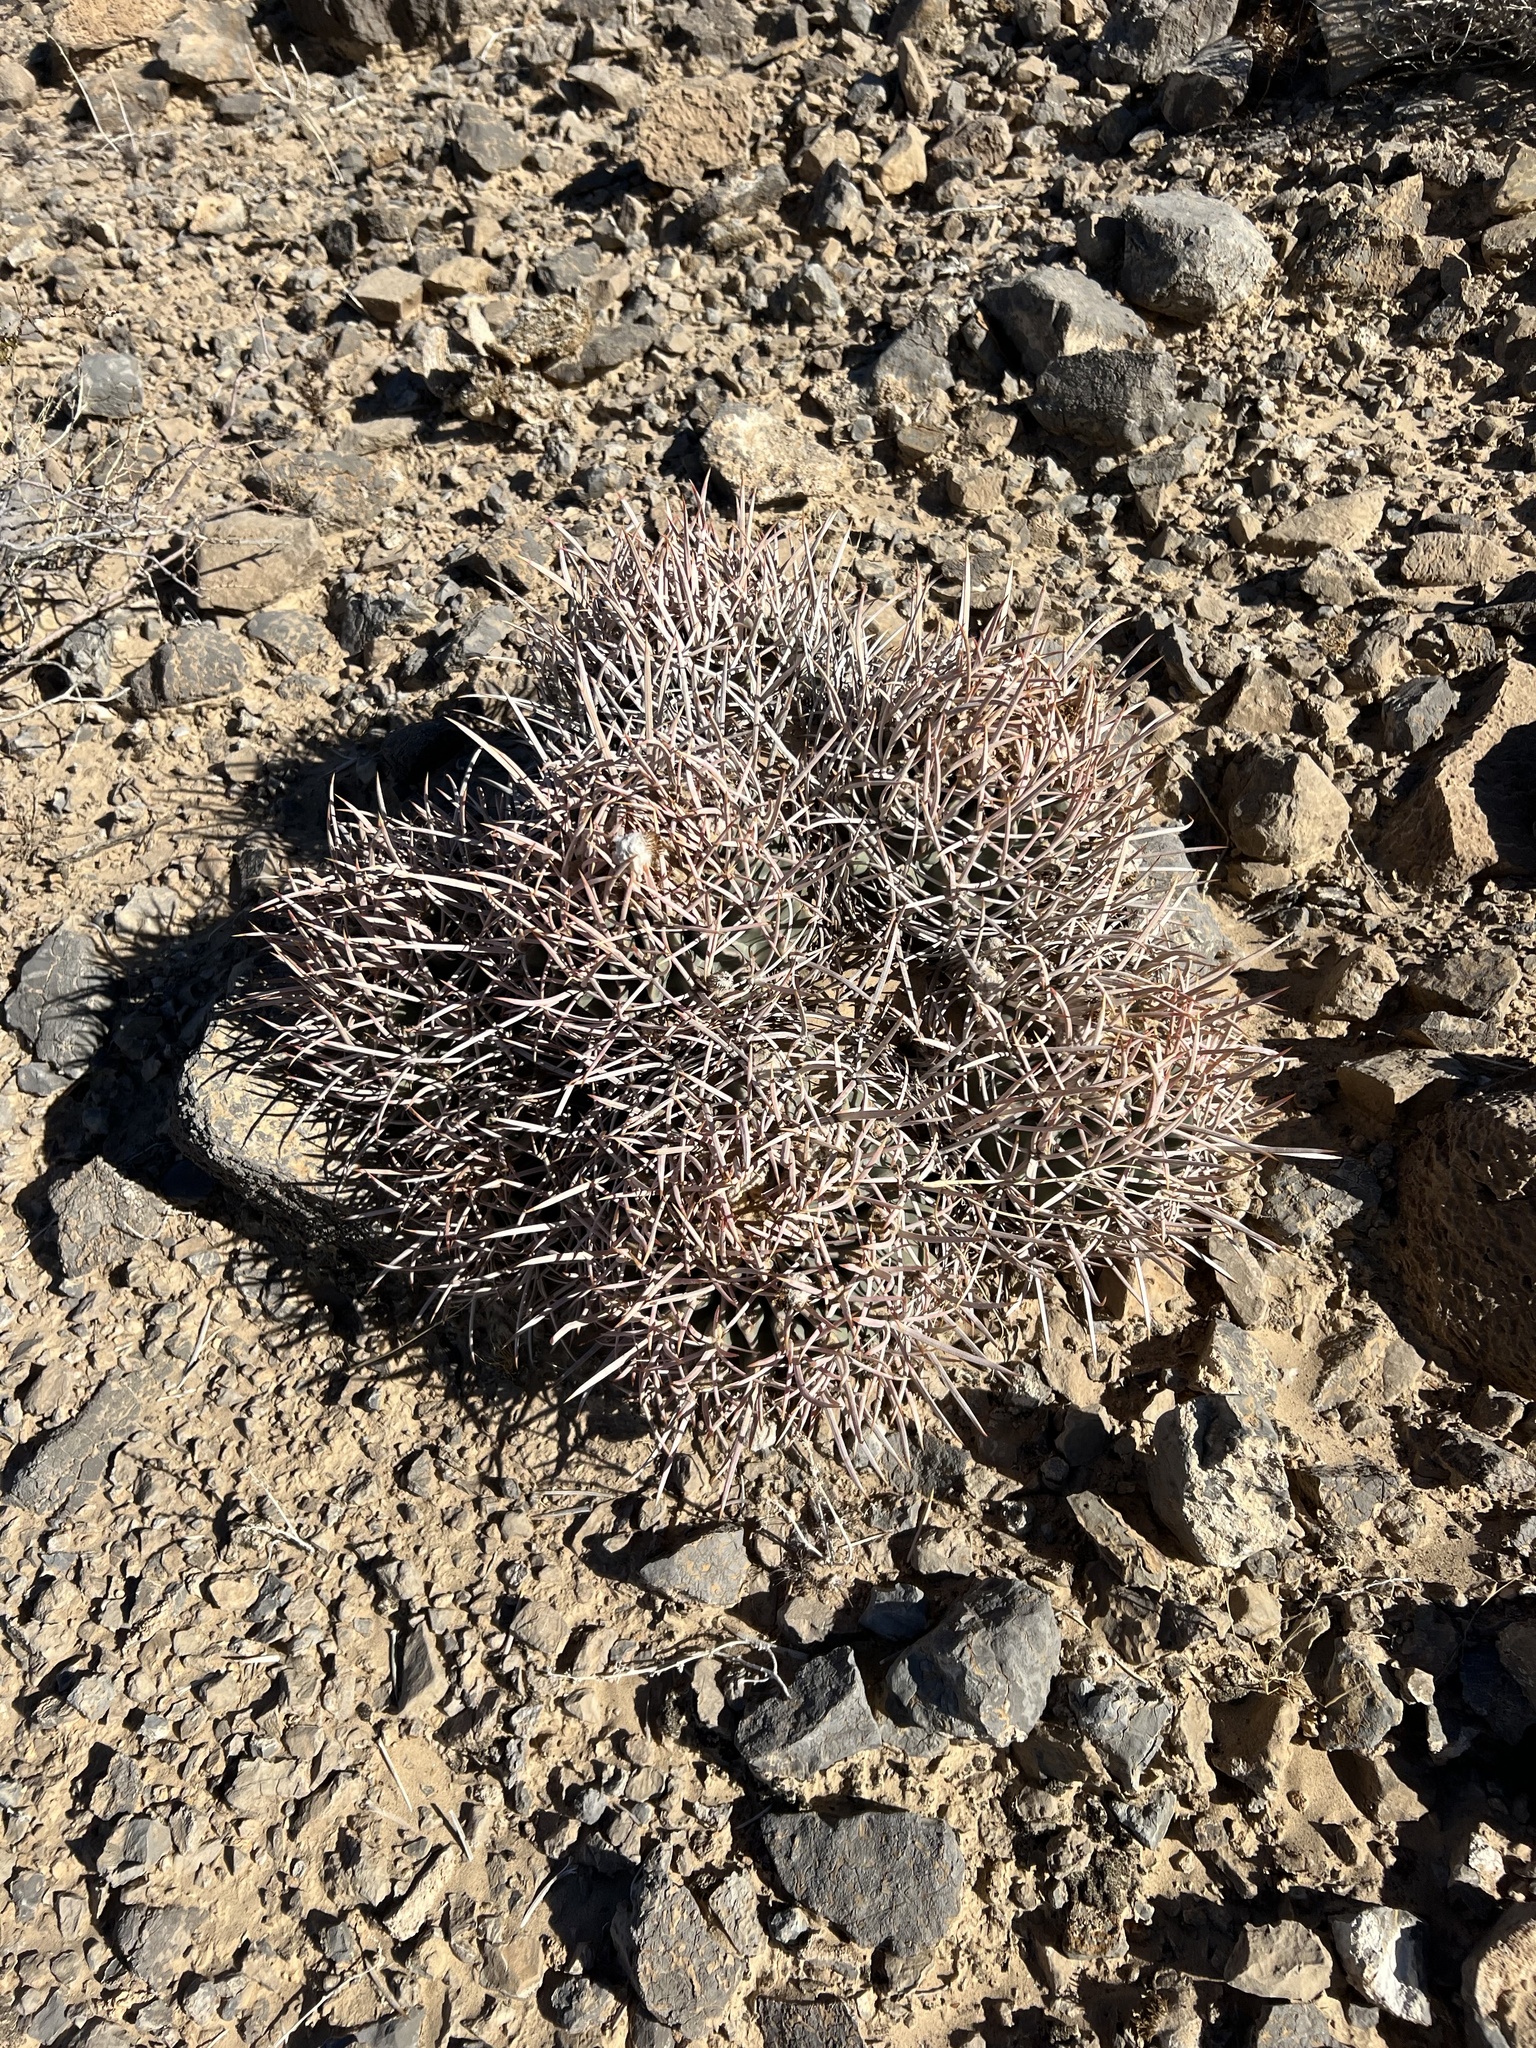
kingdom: Plantae
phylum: Tracheophyta
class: Magnoliopsida
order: Caryophyllales
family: Cactaceae
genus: Echinocactus
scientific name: Echinocactus polycephalus
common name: Cottontop cactus
